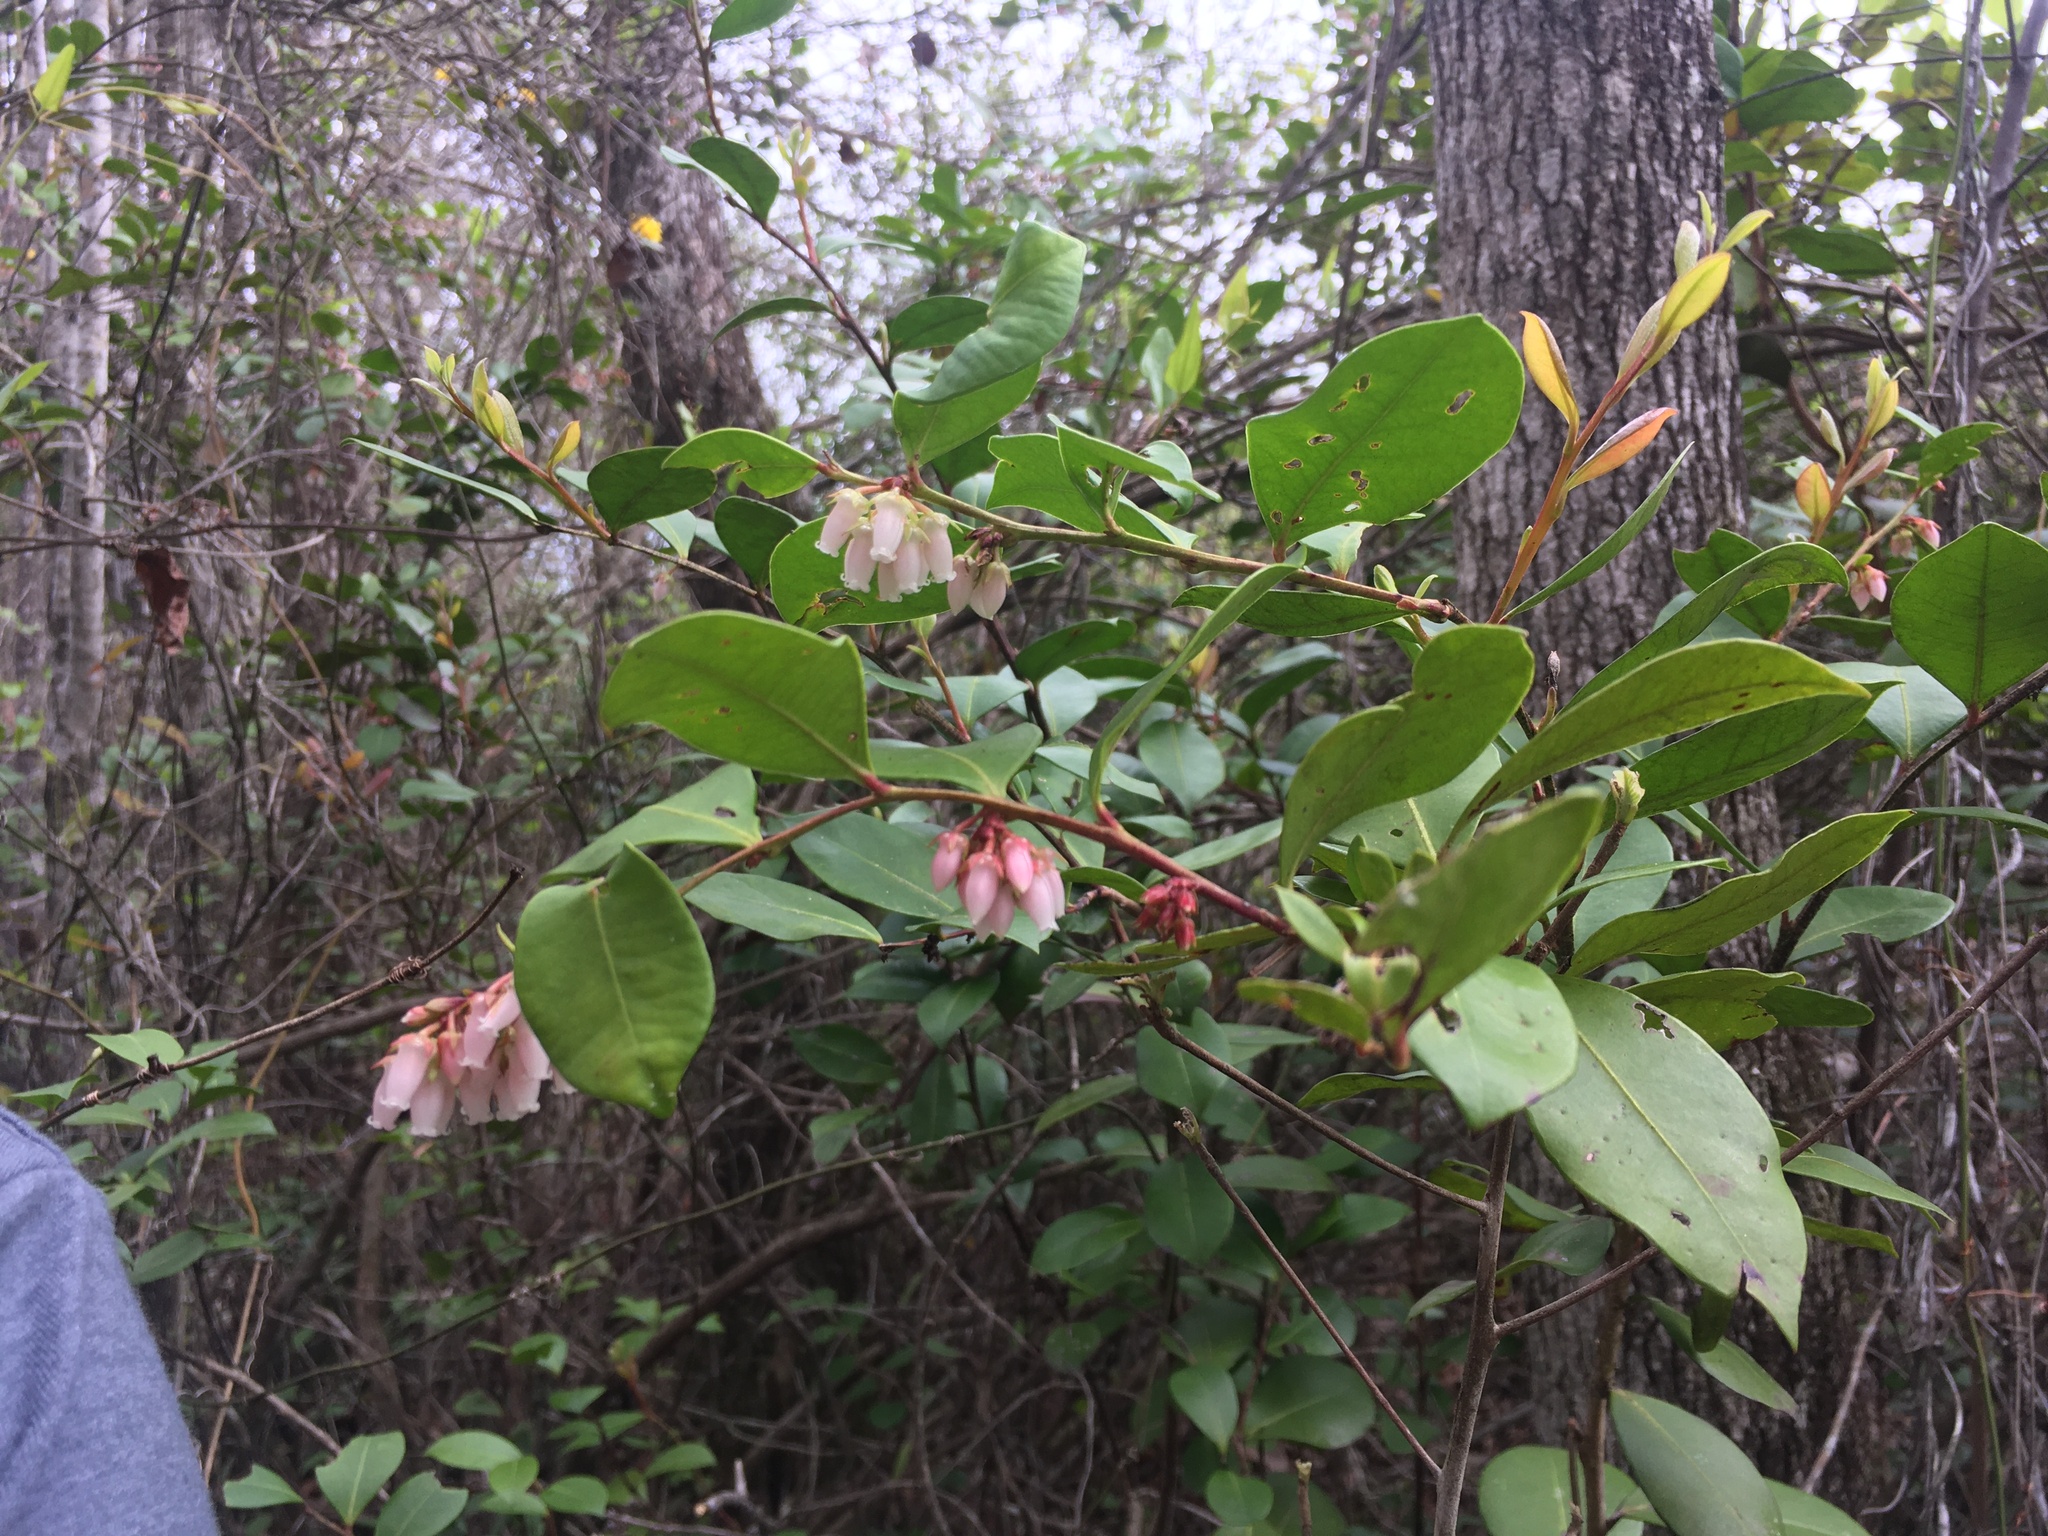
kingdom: Plantae
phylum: Tracheophyta
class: Magnoliopsida
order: Ericales
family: Ericaceae
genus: Lyonia
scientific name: Lyonia lucida
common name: Fetterbush
